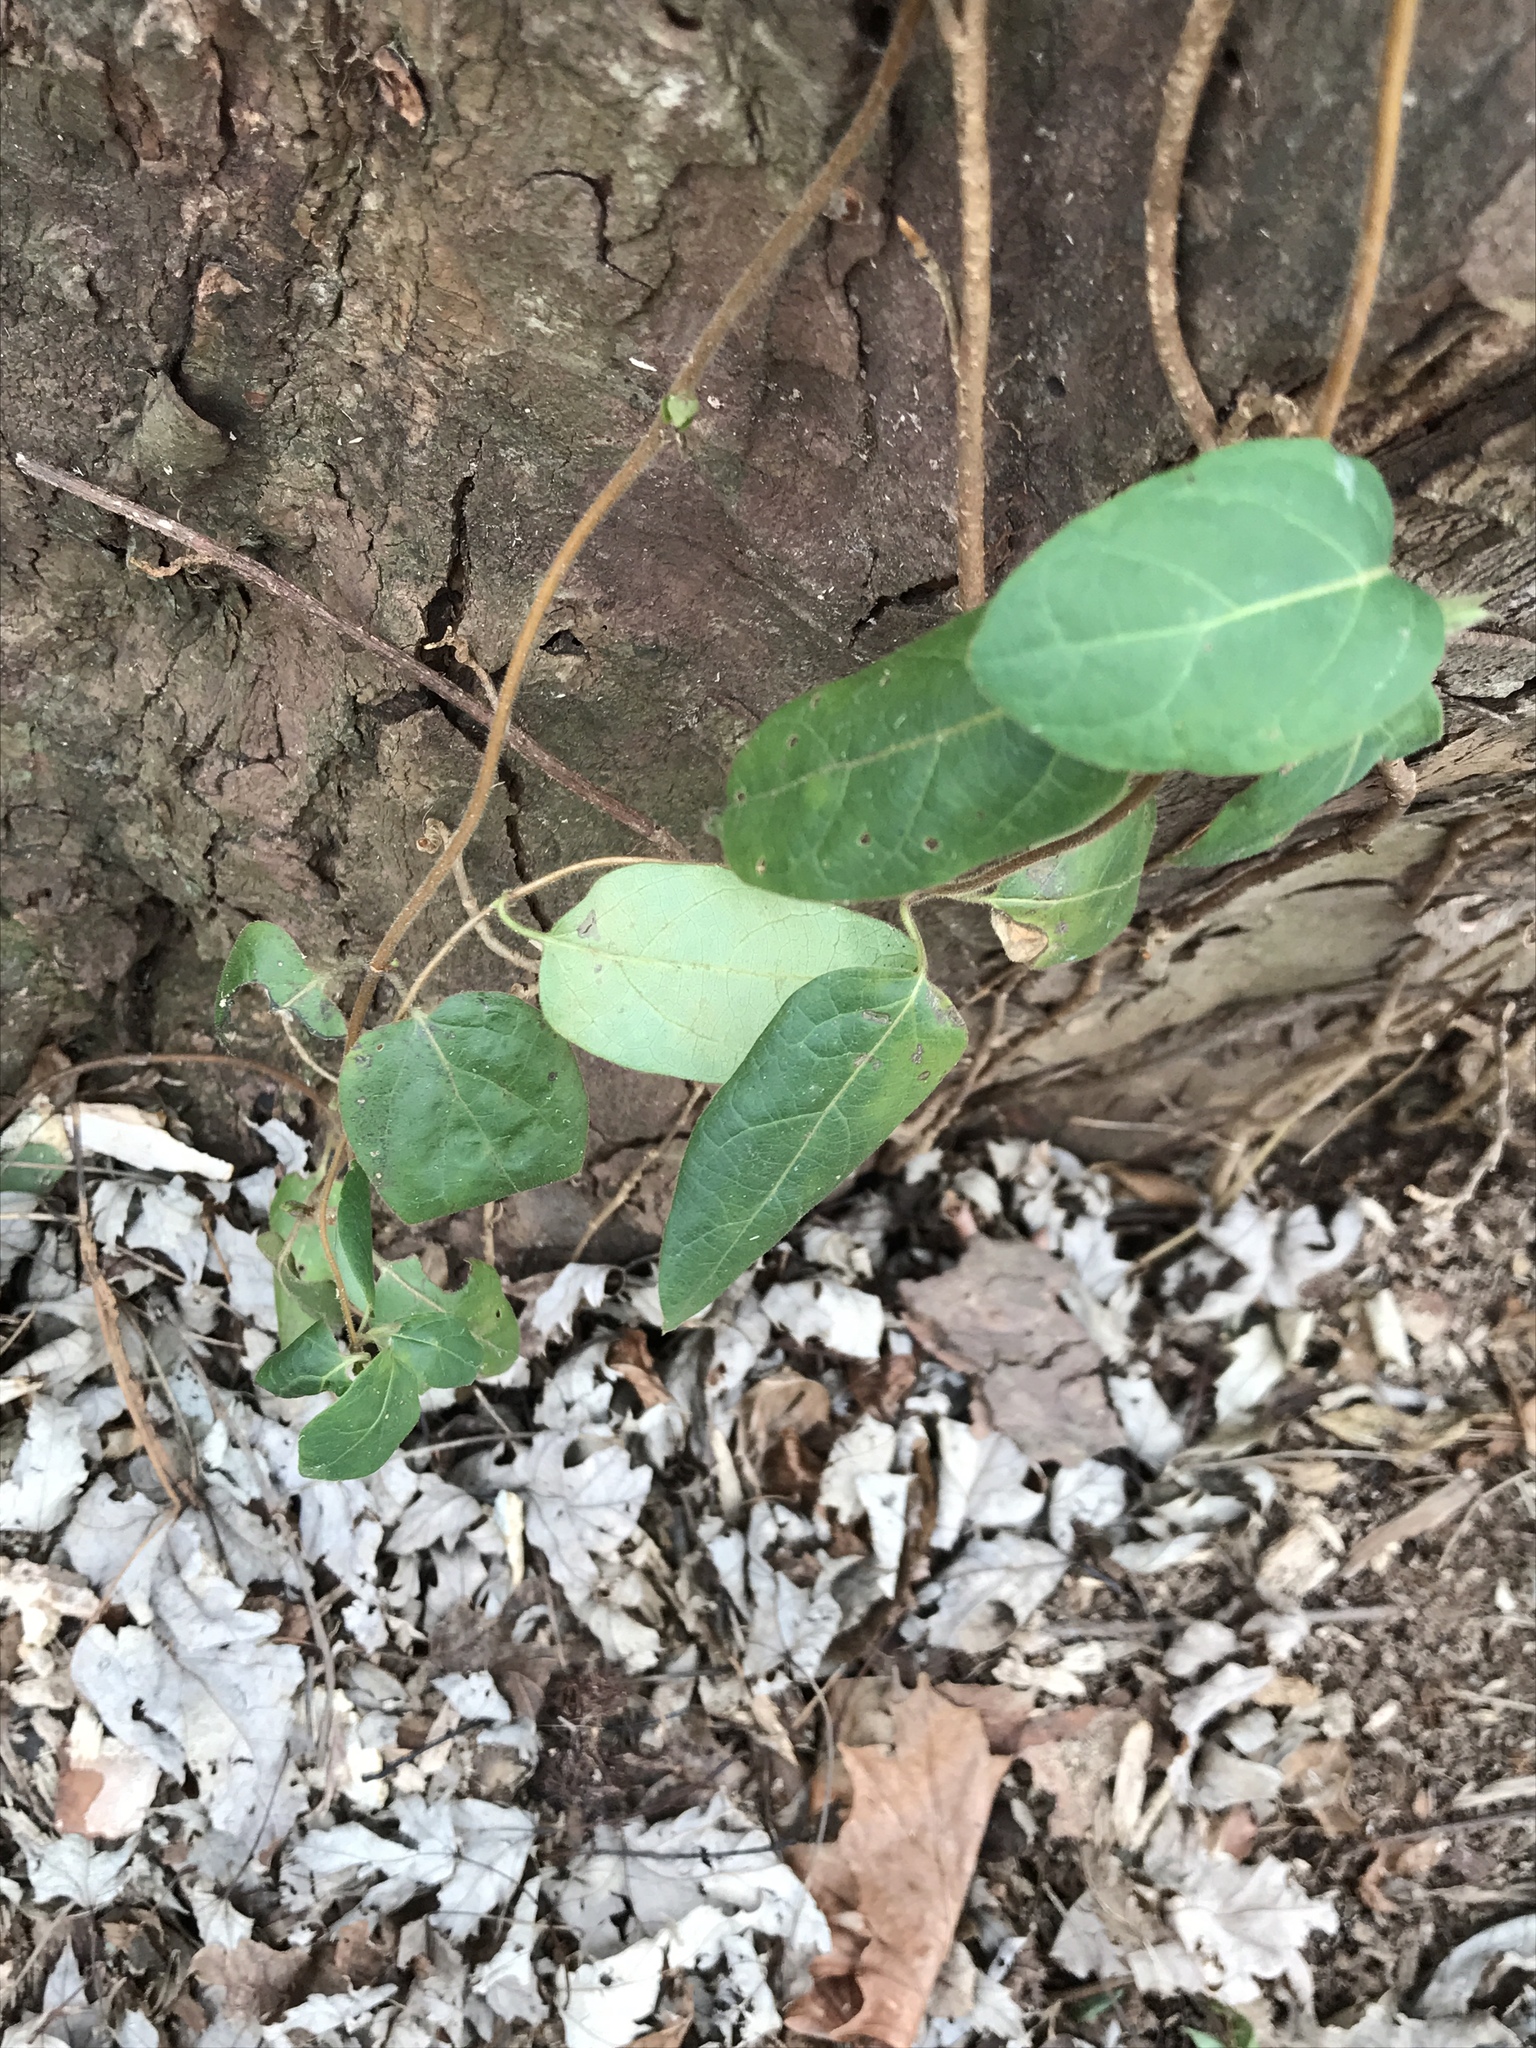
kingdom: Plantae
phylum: Tracheophyta
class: Magnoliopsida
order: Dipsacales
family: Caprifoliaceae
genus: Lonicera
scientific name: Lonicera japonica
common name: Japanese honeysuckle
